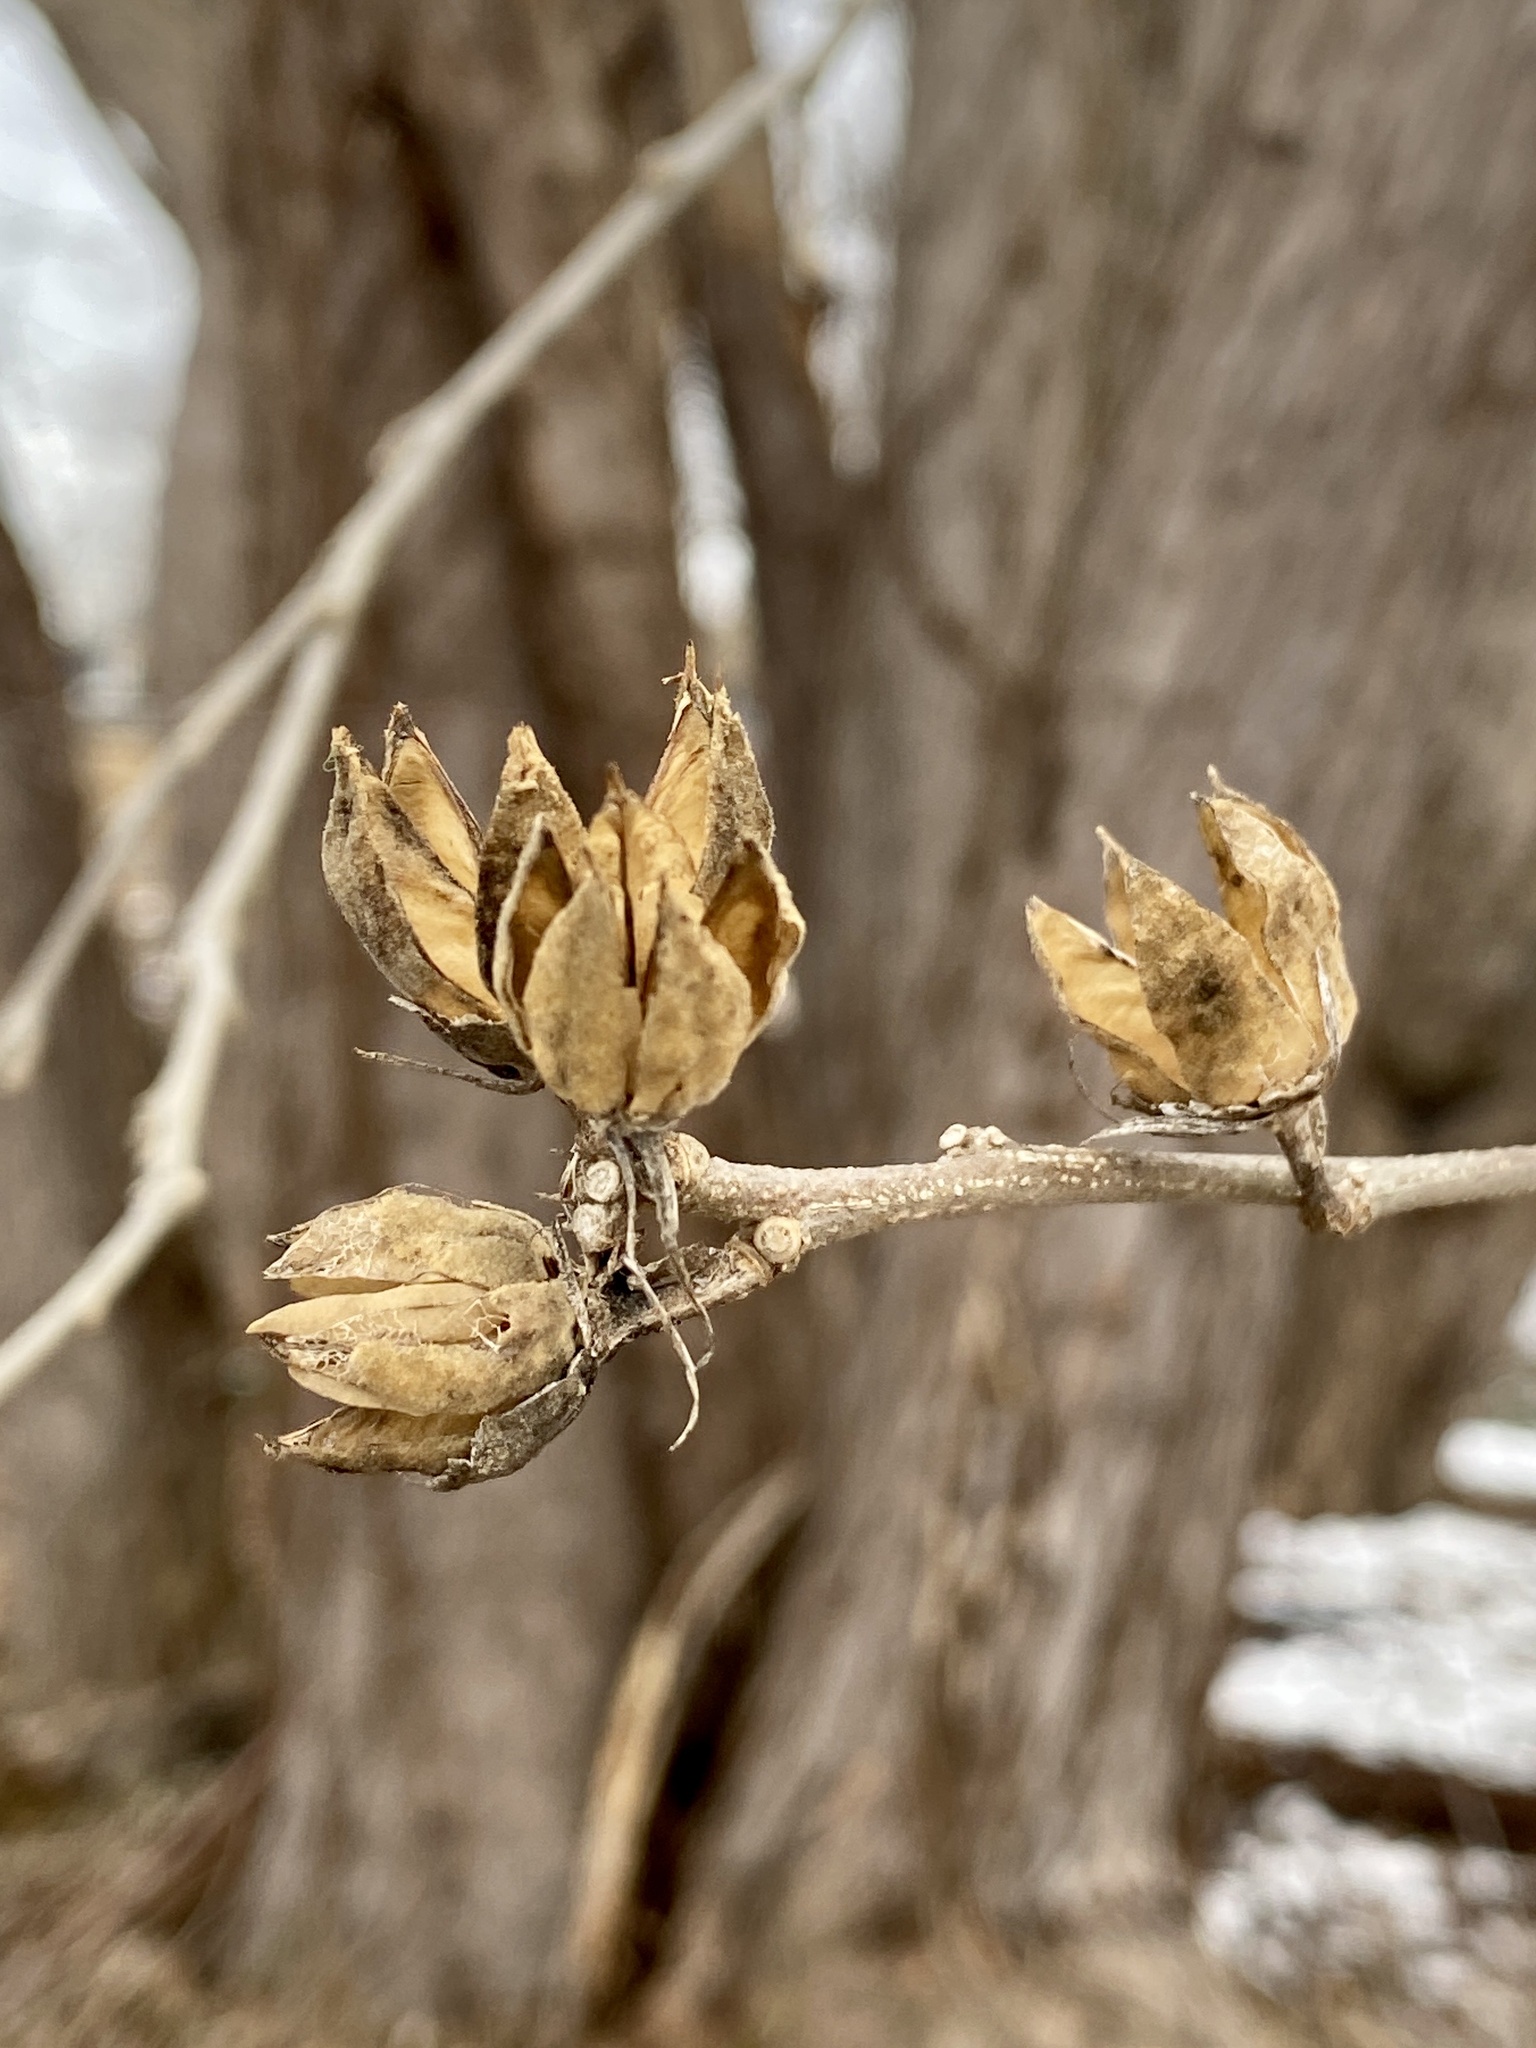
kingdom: Plantae
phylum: Tracheophyta
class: Magnoliopsida
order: Malvales
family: Malvaceae
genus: Hibiscus
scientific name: Hibiscus syriacus
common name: Syrian ketmia
